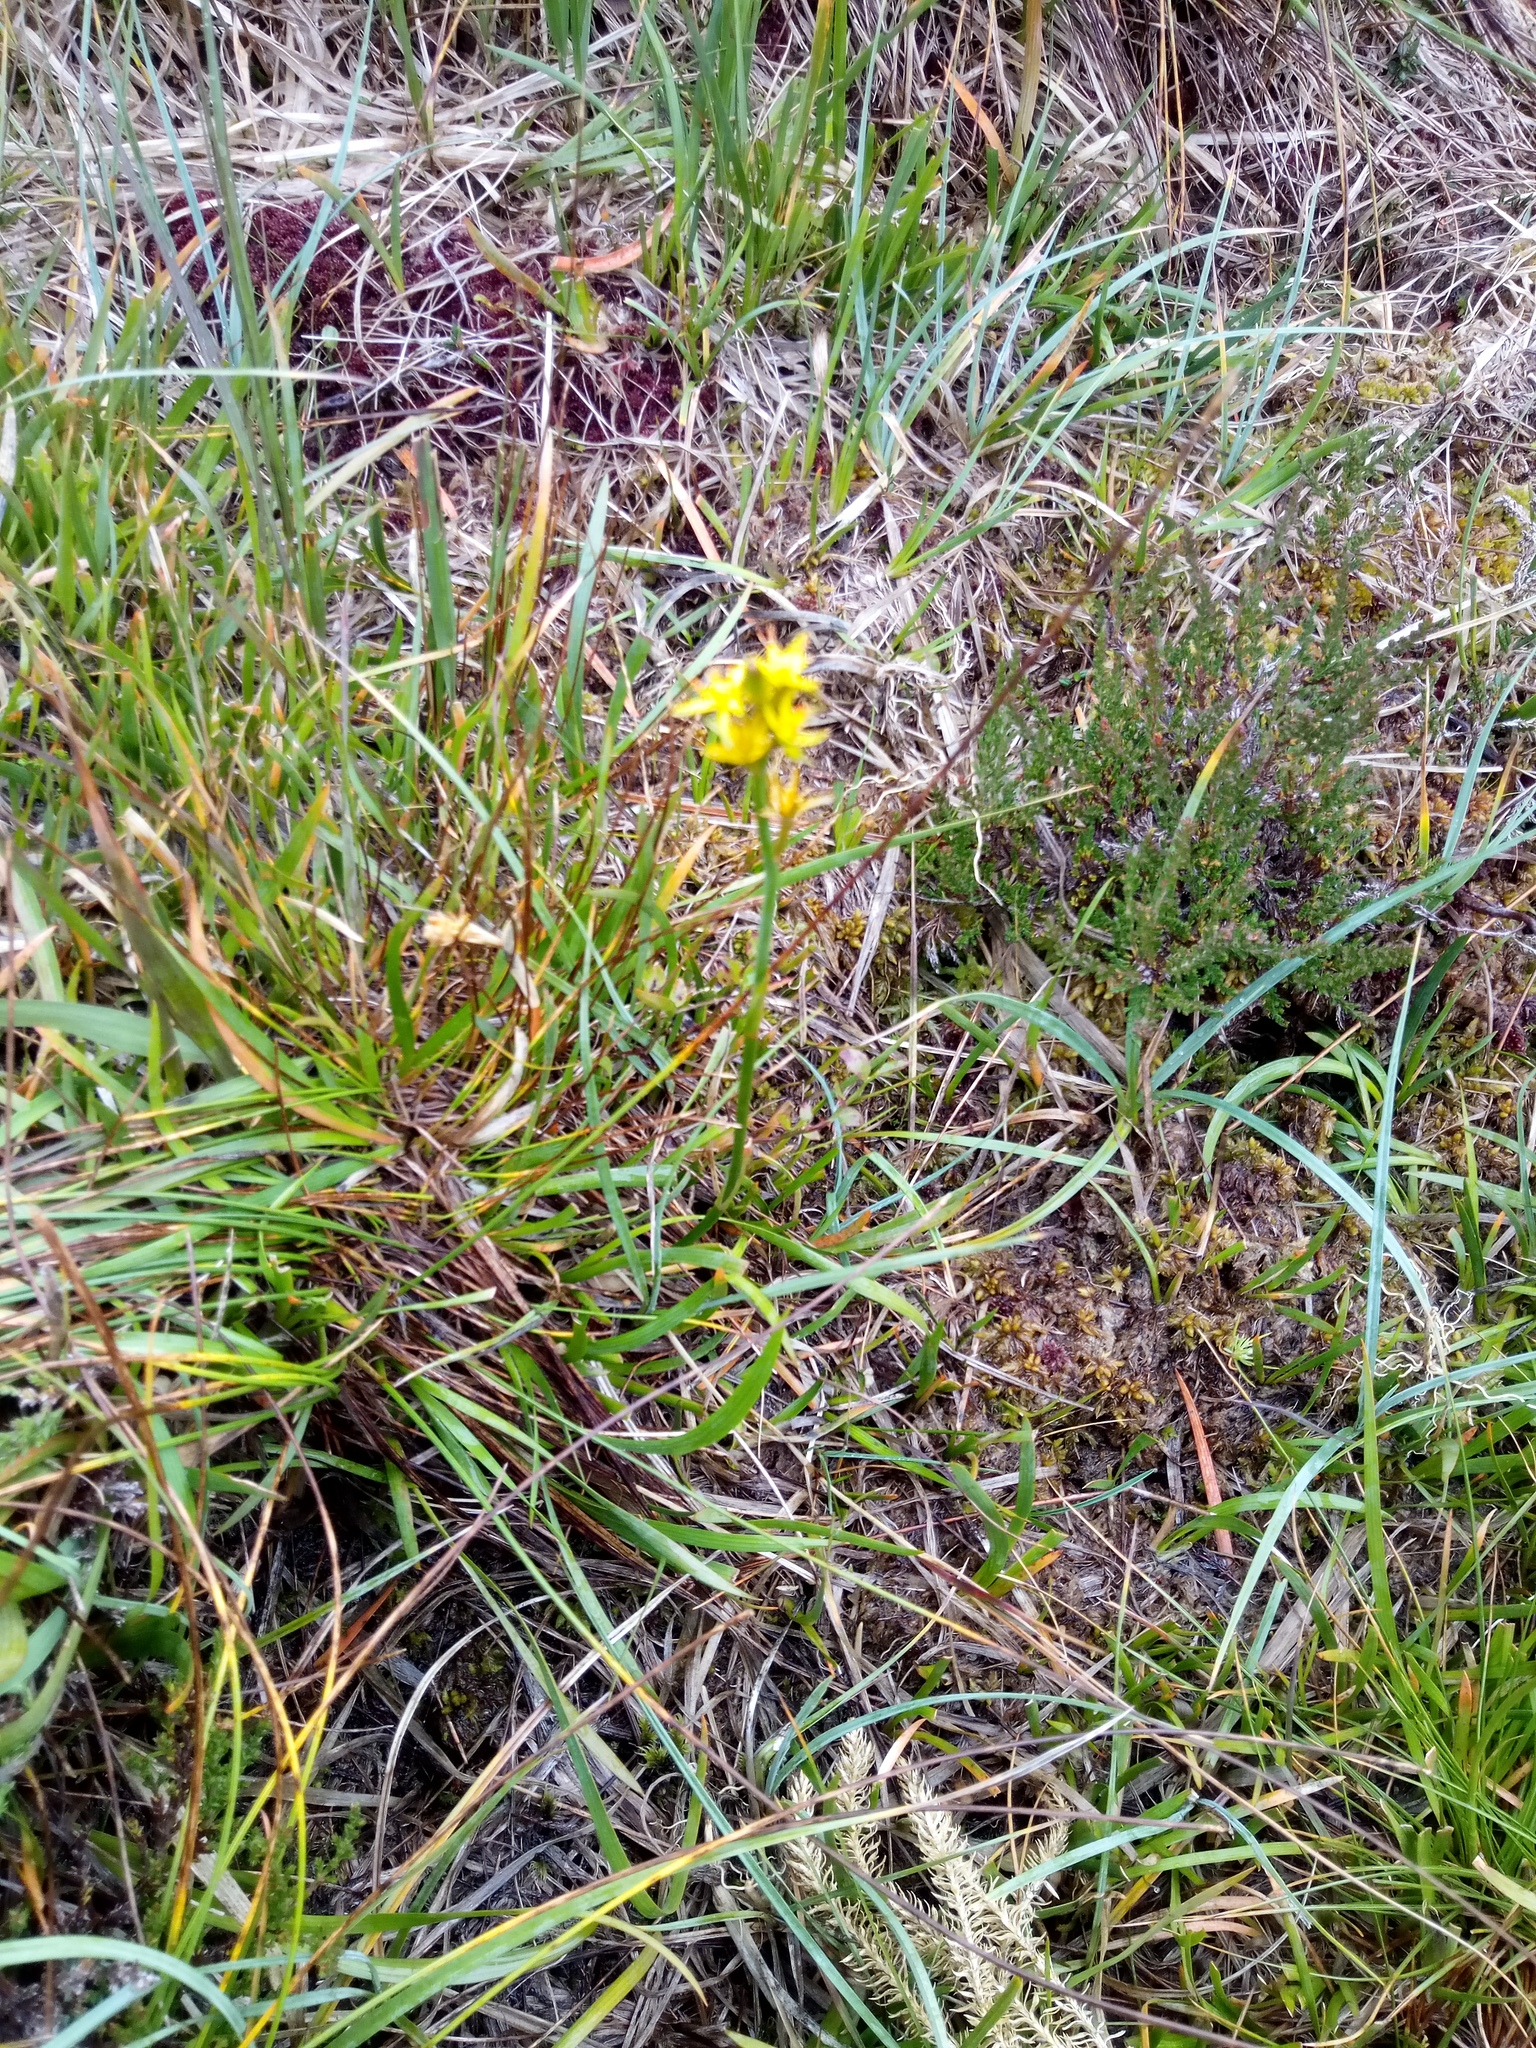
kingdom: Plantae
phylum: Tracheophyta
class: Liliopsida
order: Dioscoreales
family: Nartheciaceae
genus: Narthecium
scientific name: Narthecium ossifragum
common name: Bog asphodel
